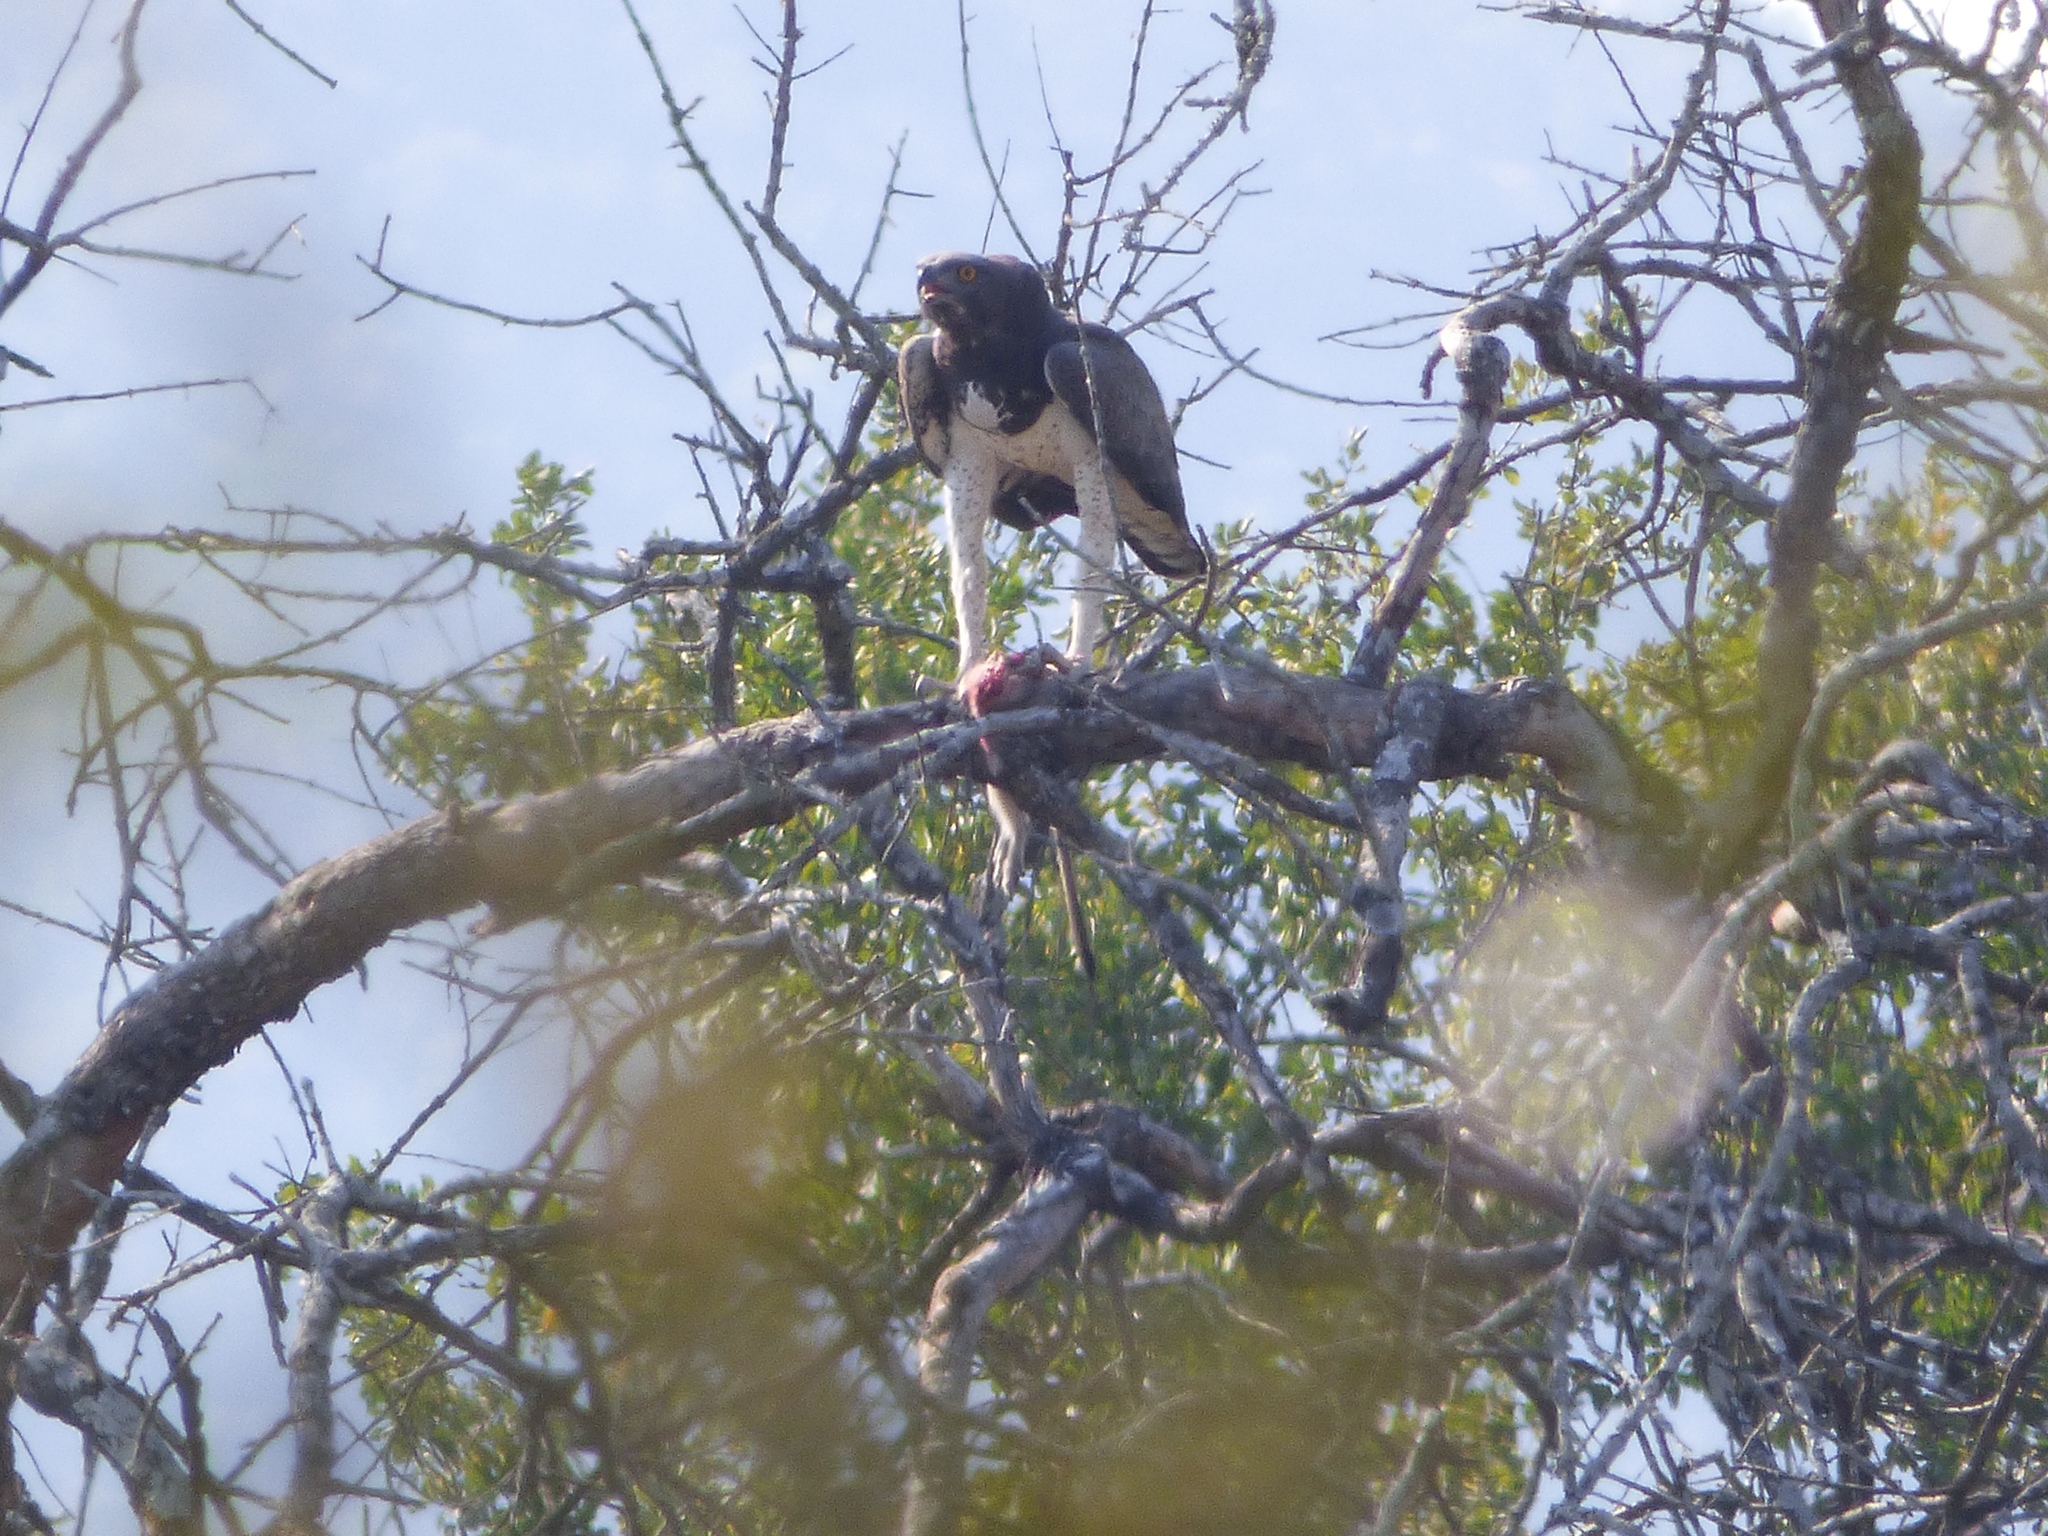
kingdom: Animalia
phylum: Chordata
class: Aves
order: Accipitriformes
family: Accipitridae
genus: Polemaetus
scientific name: Polemaetus bellicosus
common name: Martial eagle
